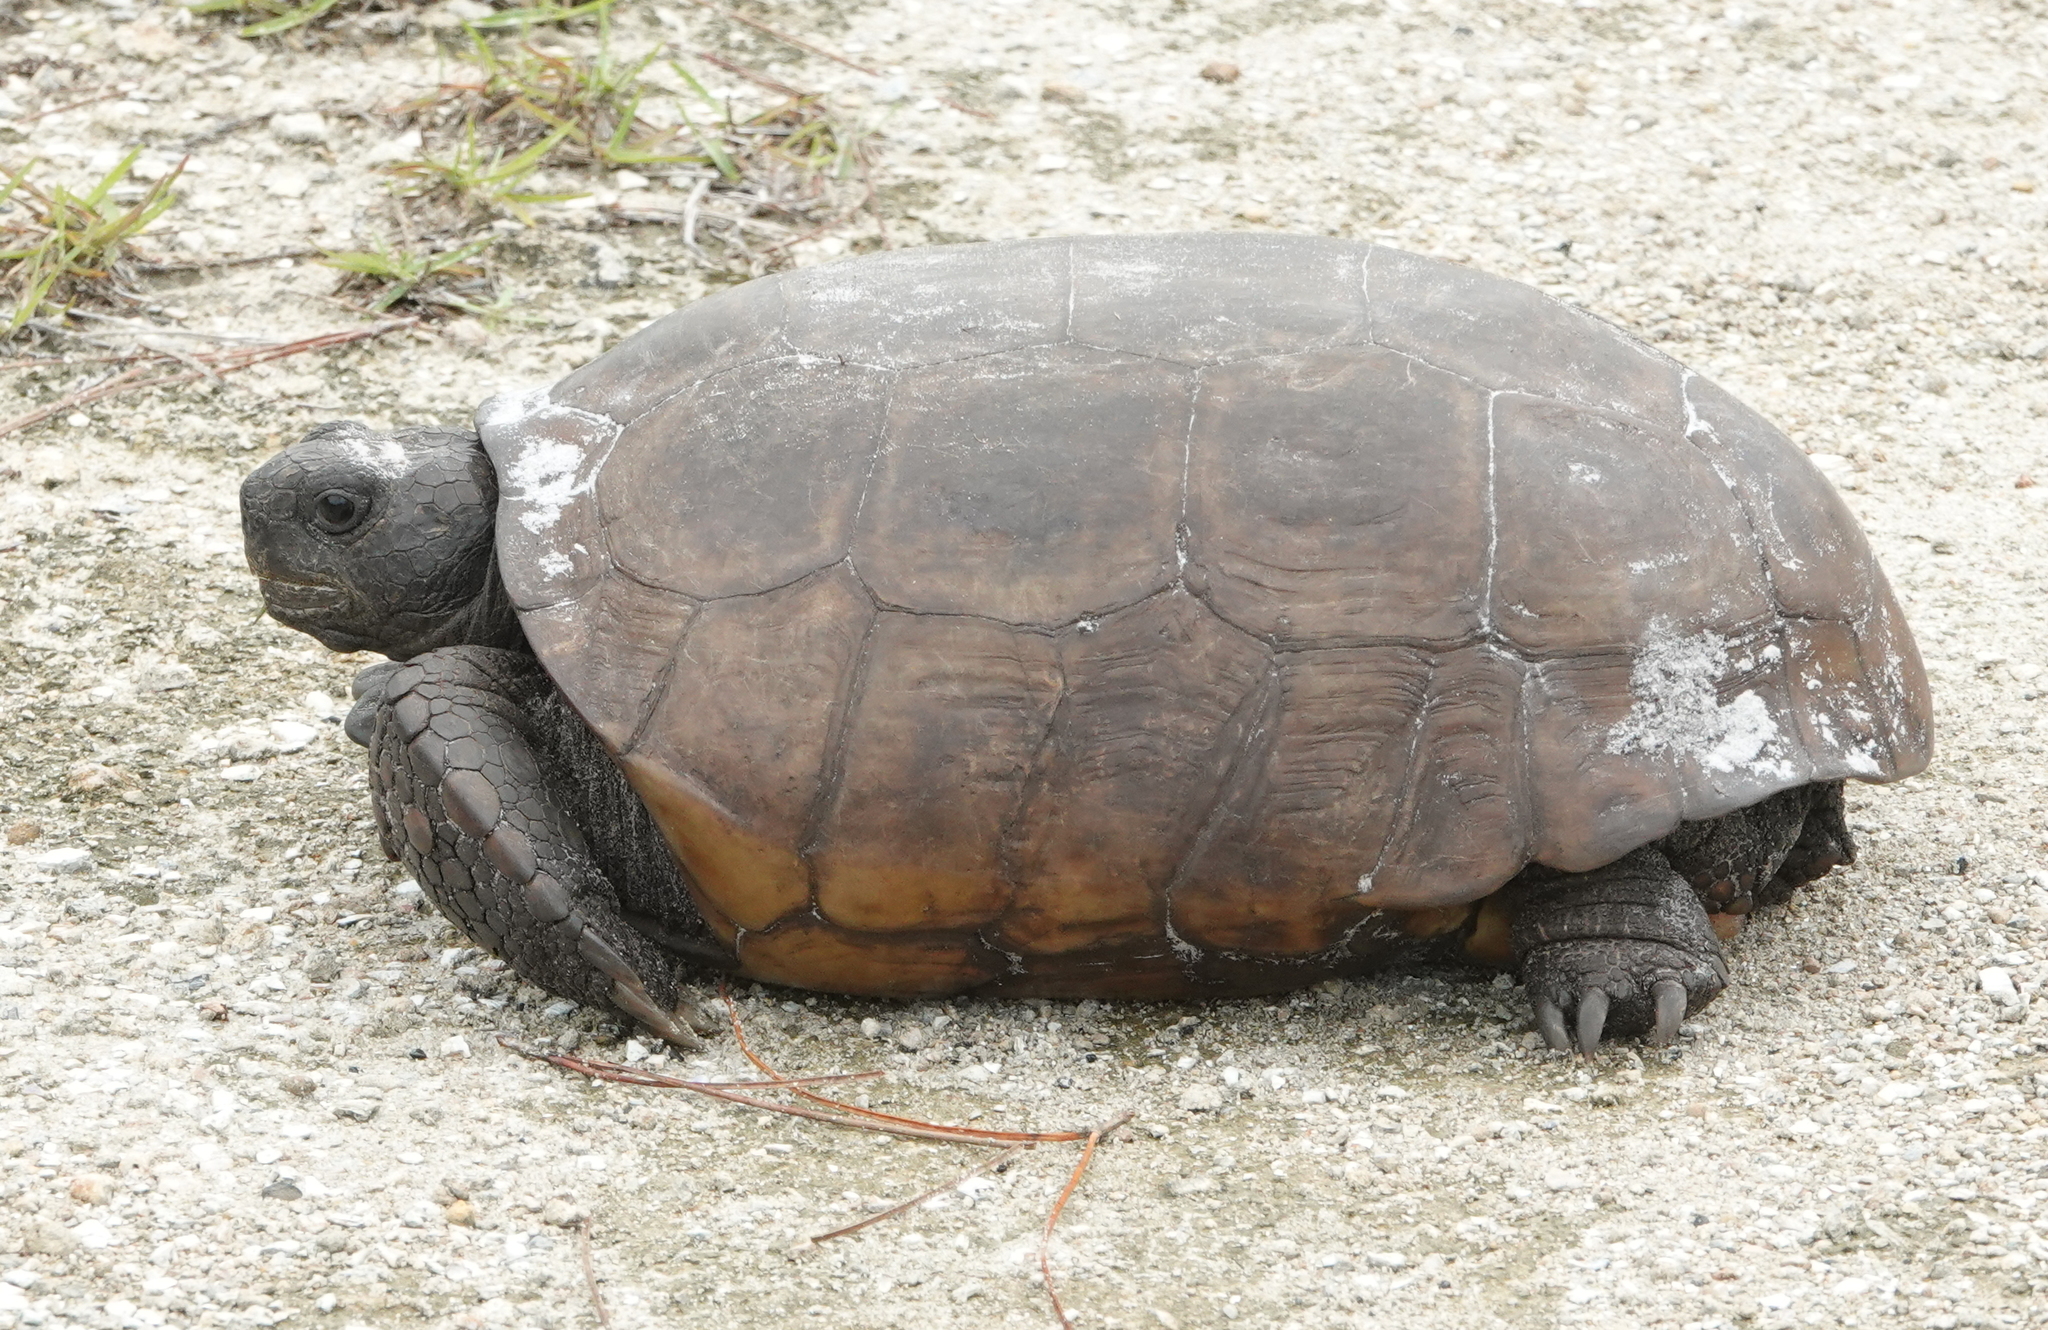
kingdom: Animalia
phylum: Chordata
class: Testudines
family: Testudinidae
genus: Gopherus
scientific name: Gopherus polyphemus
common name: Florida gopher tortoise
